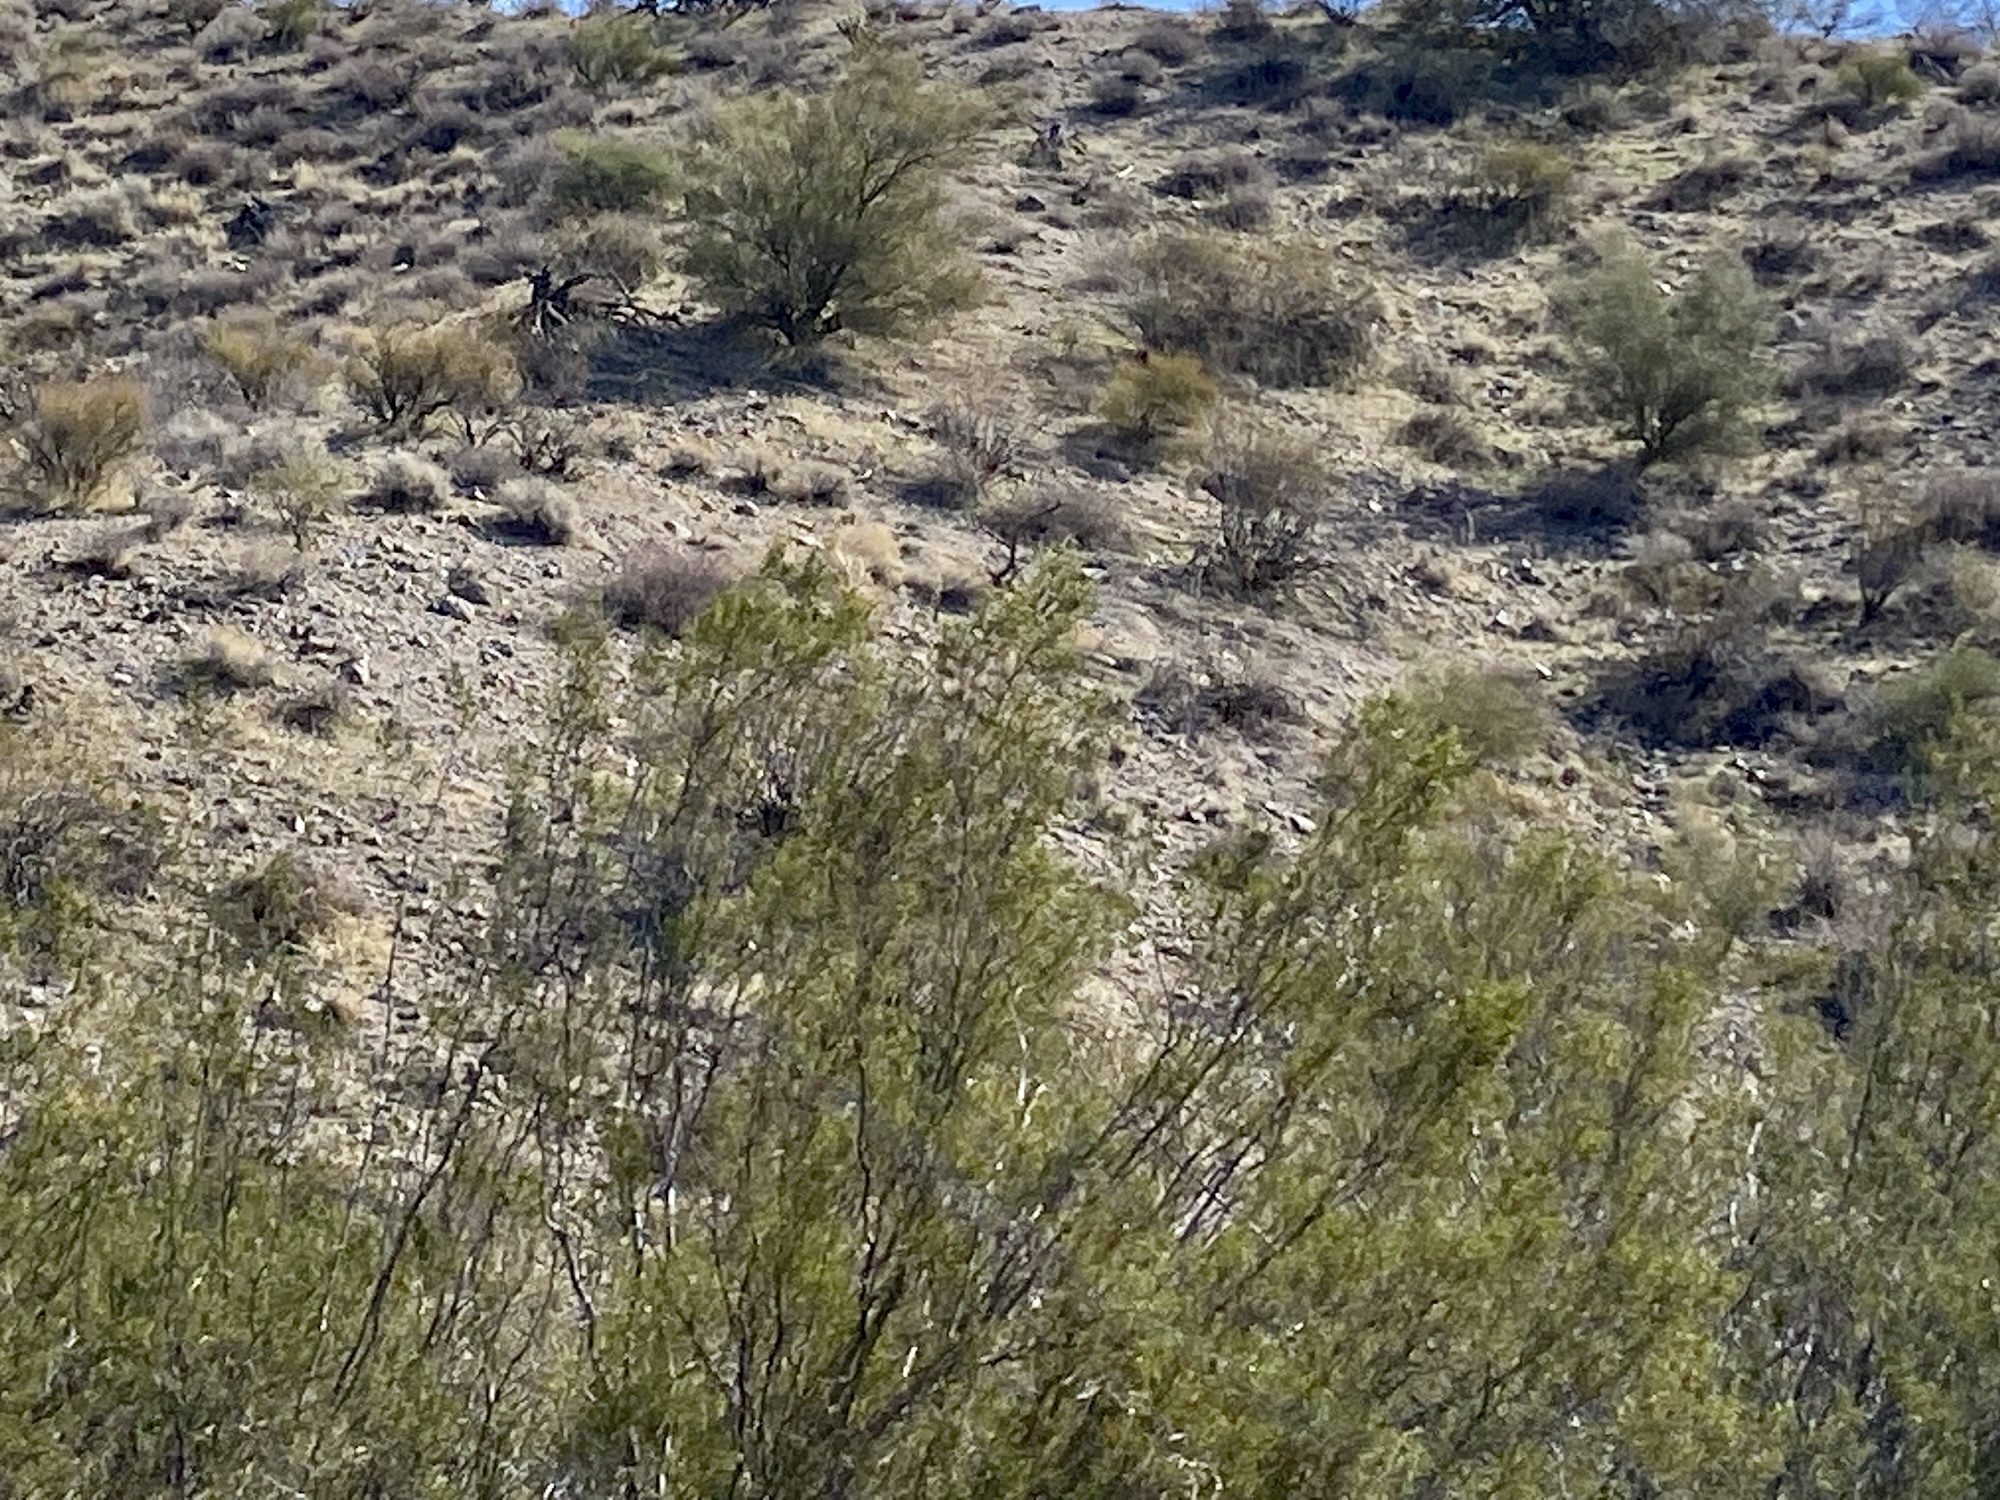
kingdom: Plantae
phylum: Tracheophyta
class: Magnoliopsida
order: Zygophyllales
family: Zygophyllaceae
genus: Larrea
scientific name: Larrea tridentata
